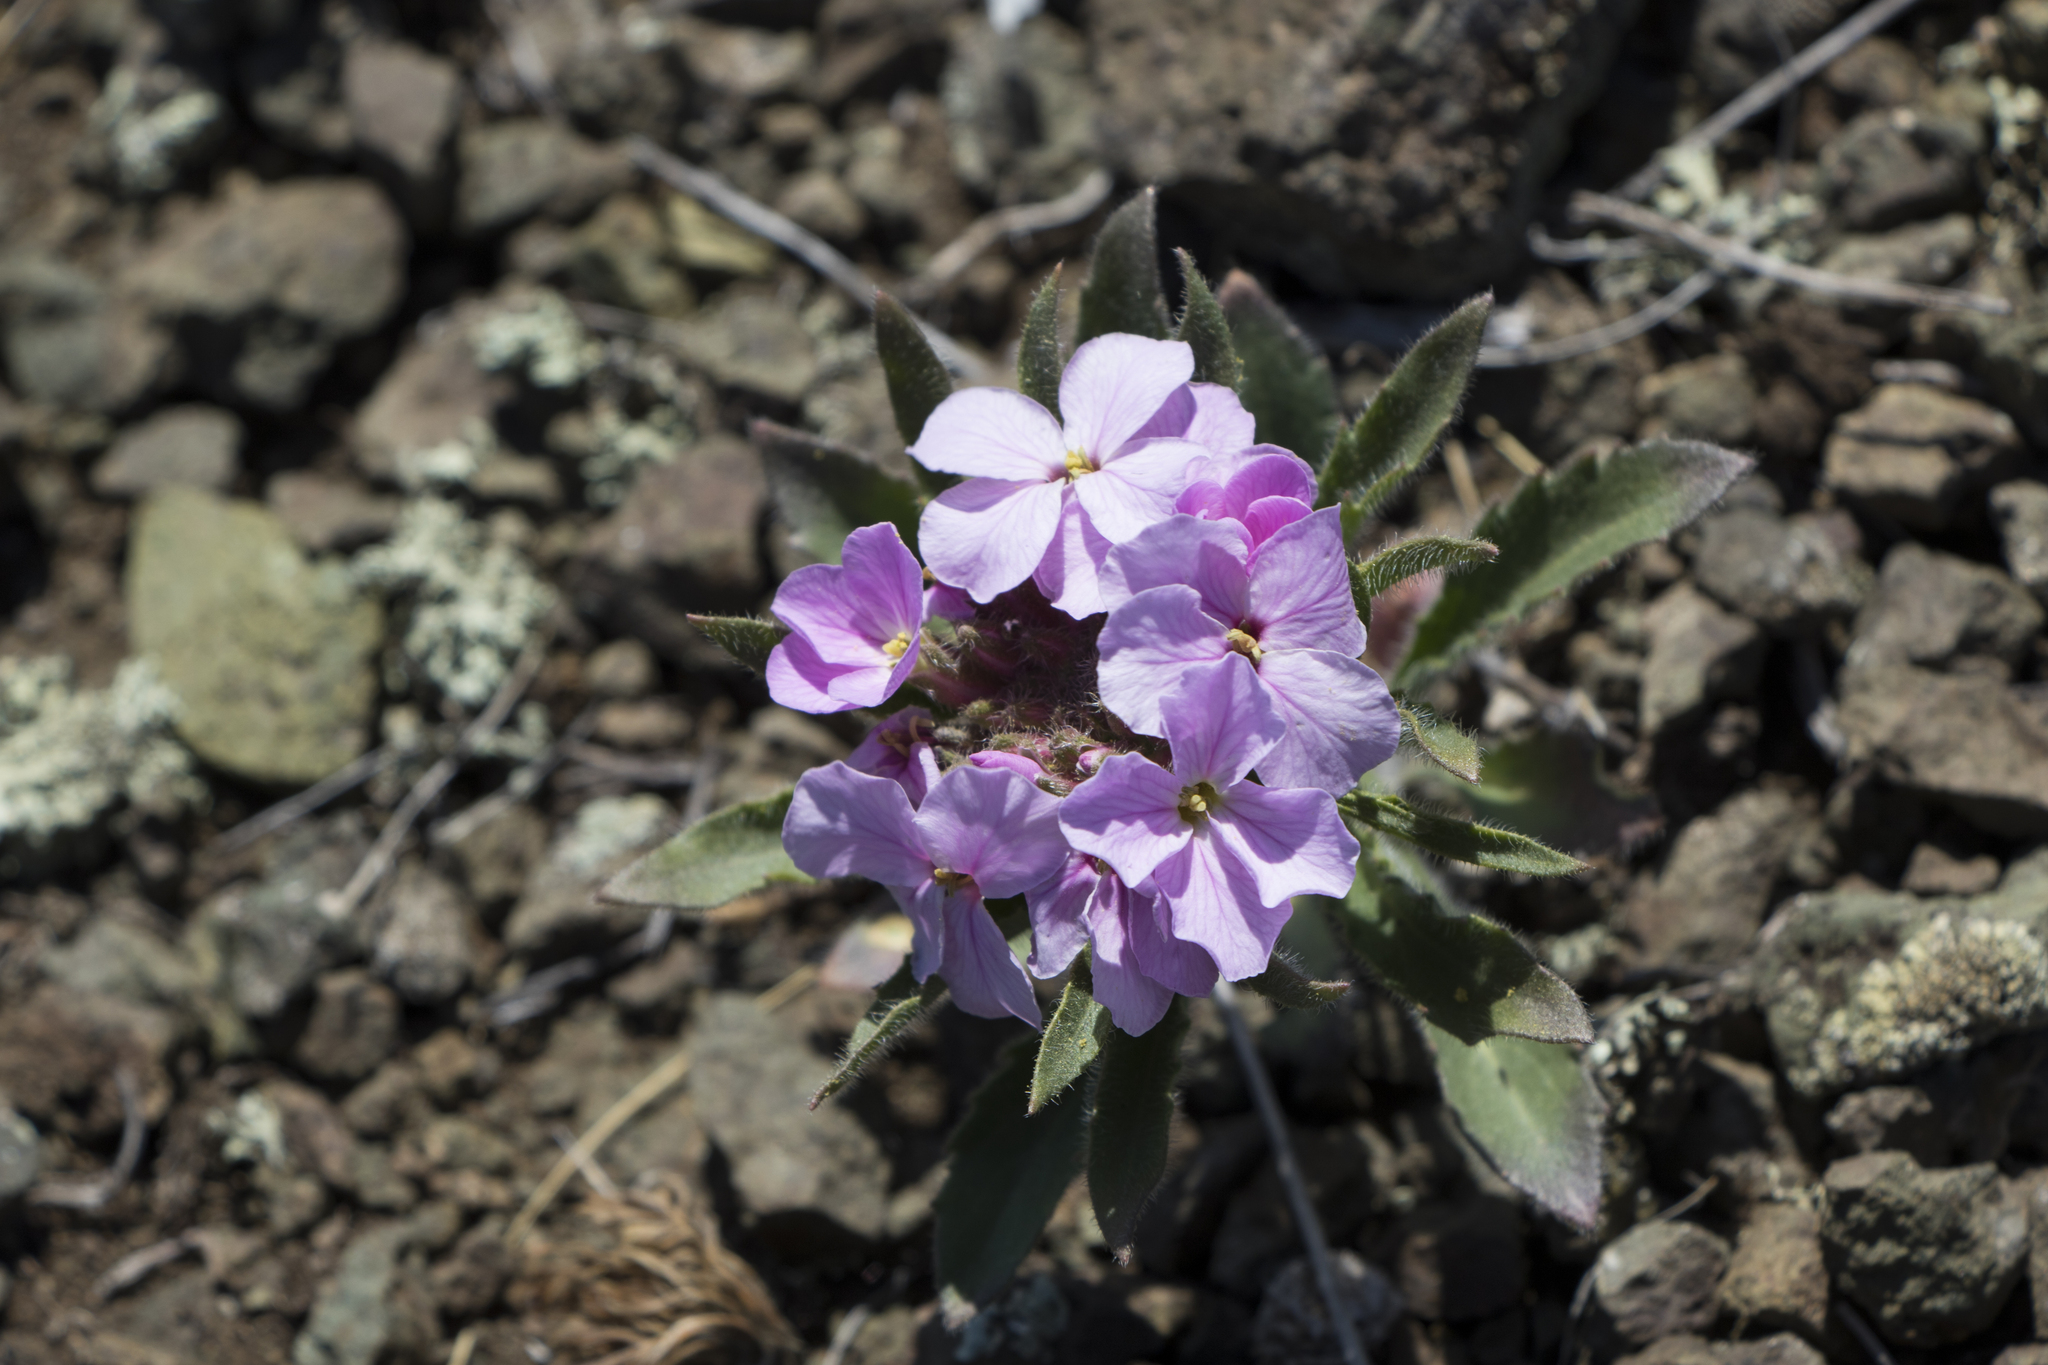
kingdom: Plantae
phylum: Tracheophyta
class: Magnoliopsida
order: Brassicales
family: Brassicaceae
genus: Clausia
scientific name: Clausia aprica
